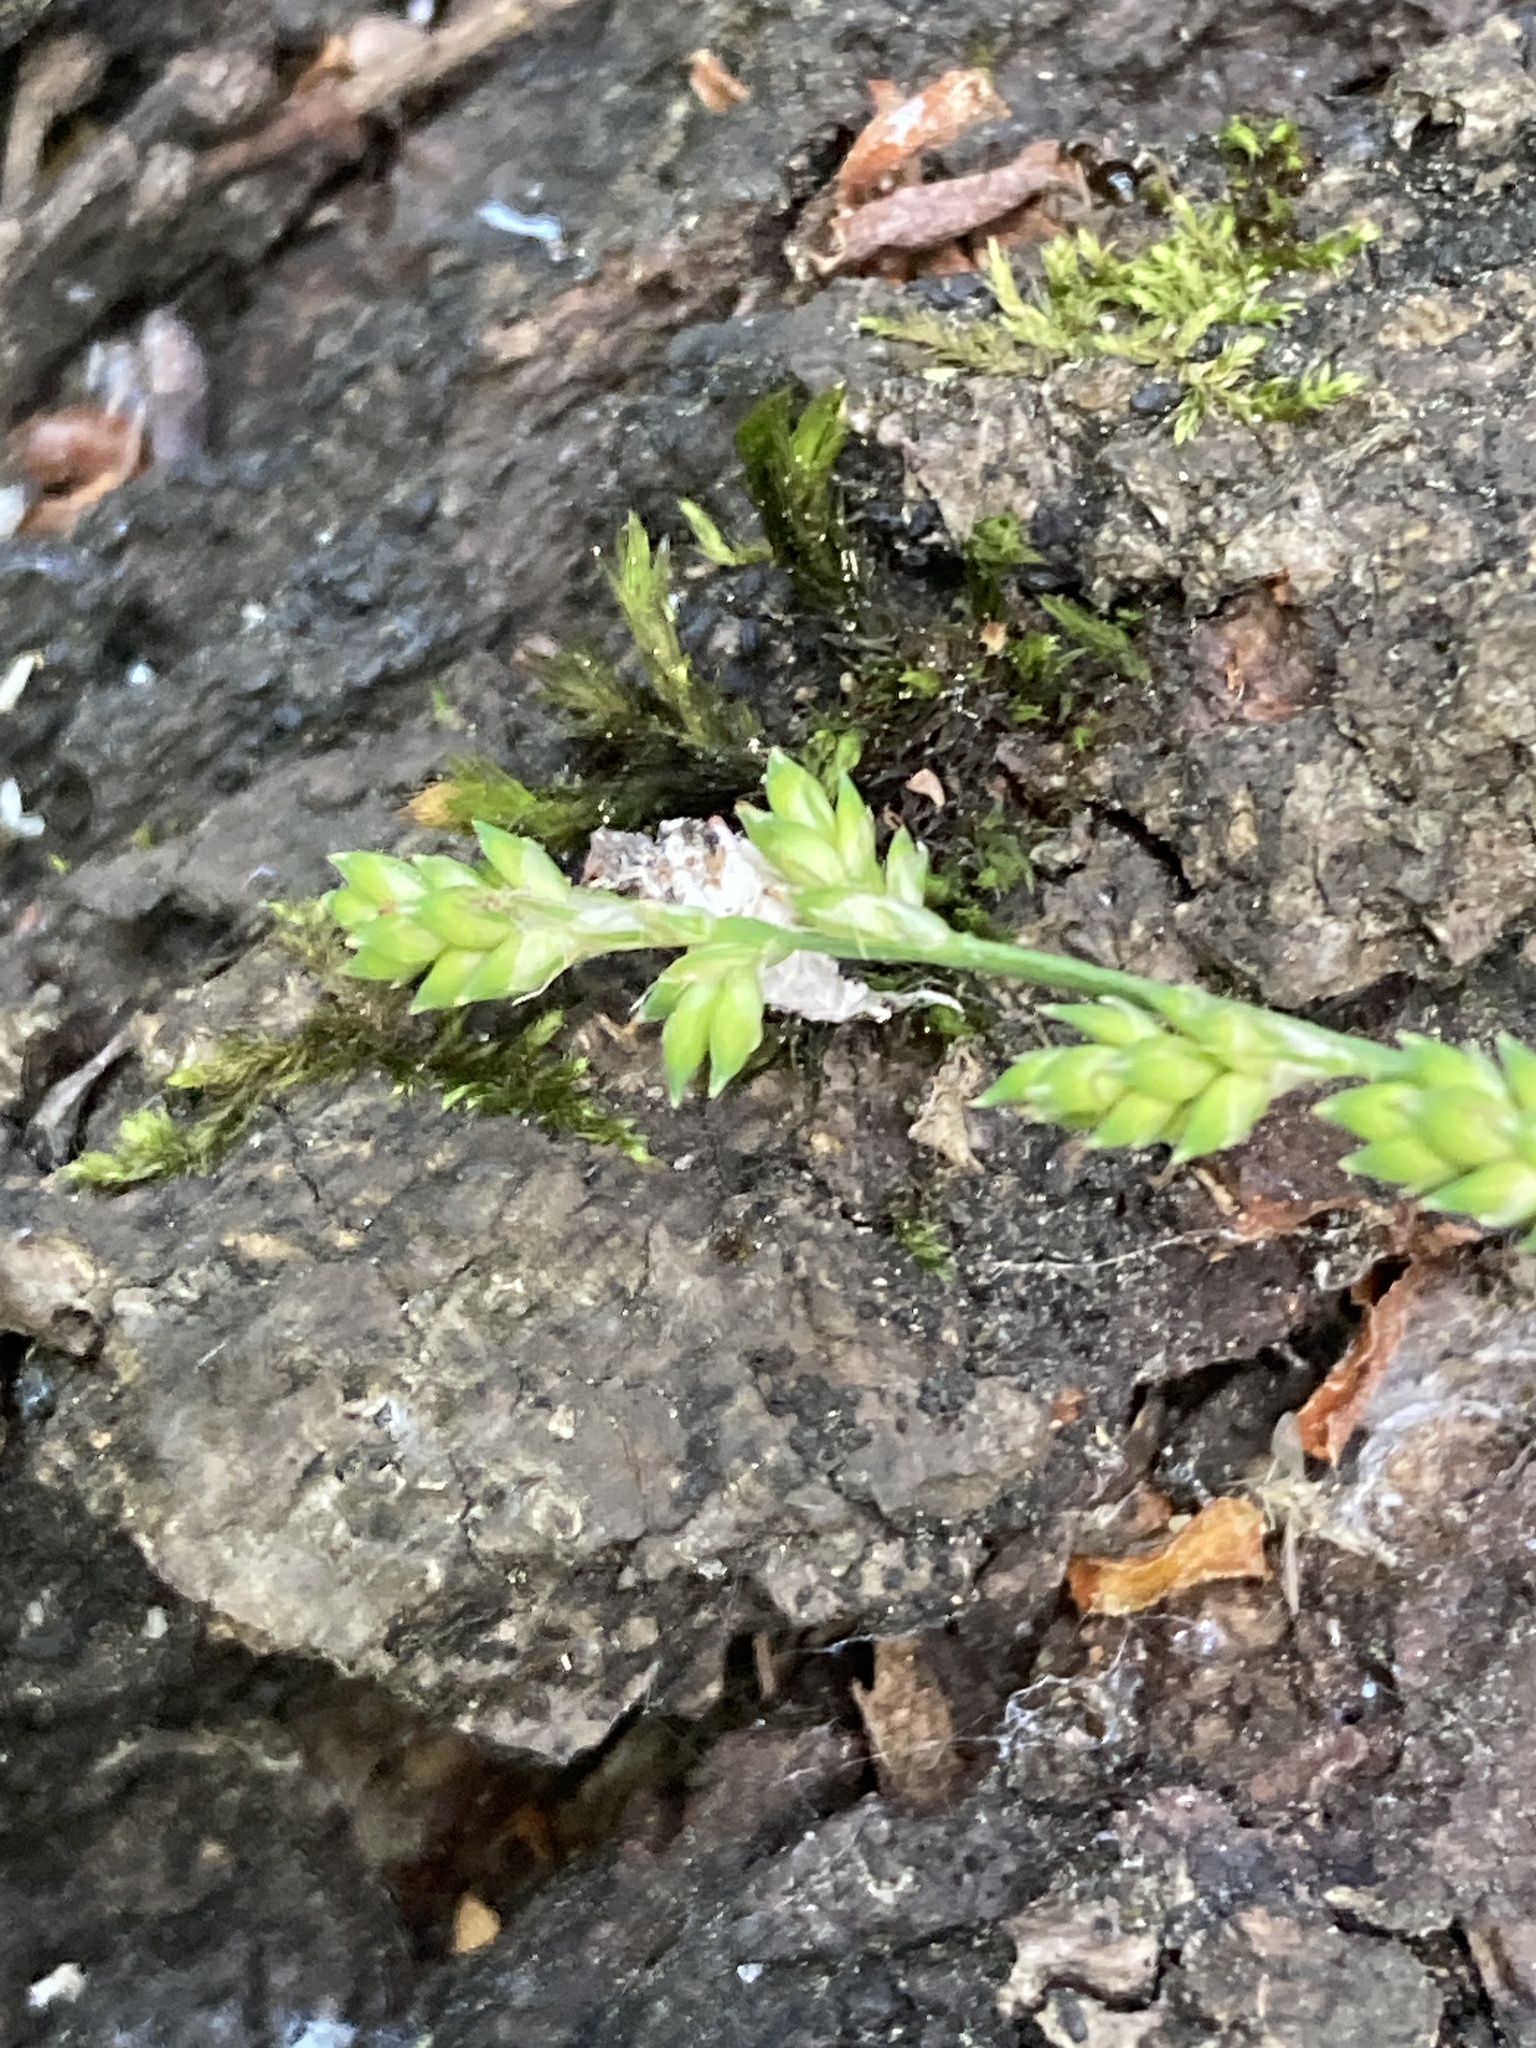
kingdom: Plantae
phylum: Tracheophyta
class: Liliopsida
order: Poales
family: Cyperaceae
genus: Carex
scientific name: Carex canescens
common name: White sedge
